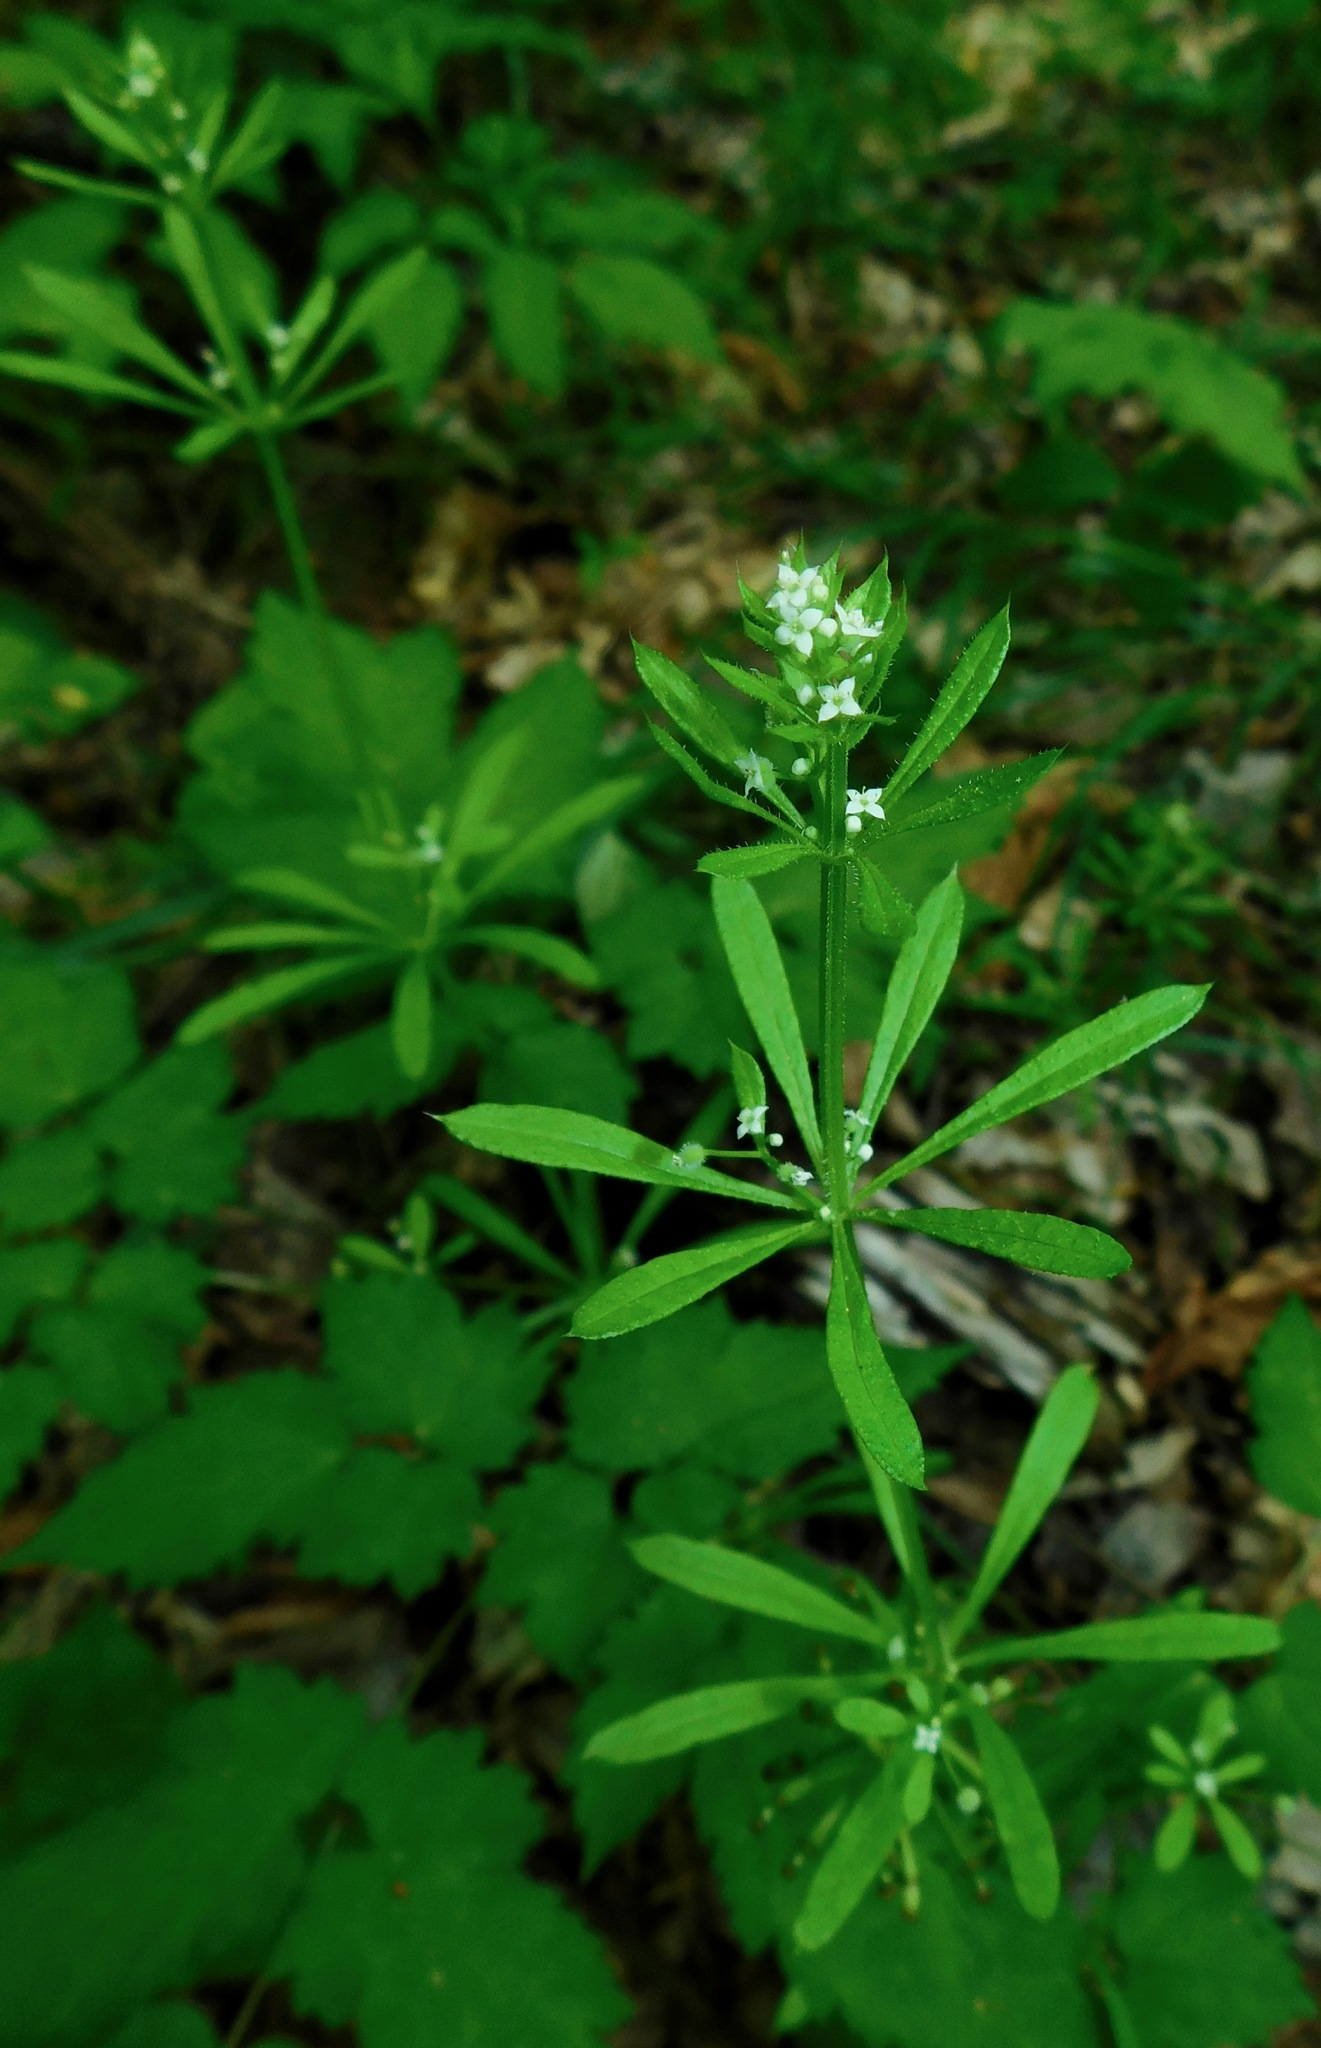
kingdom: Plantae
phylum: Tracheophyta
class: Magnoliopsida
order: Gentianales
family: Rubiaceae
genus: Galium
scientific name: Galium aparine
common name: Cleavers
